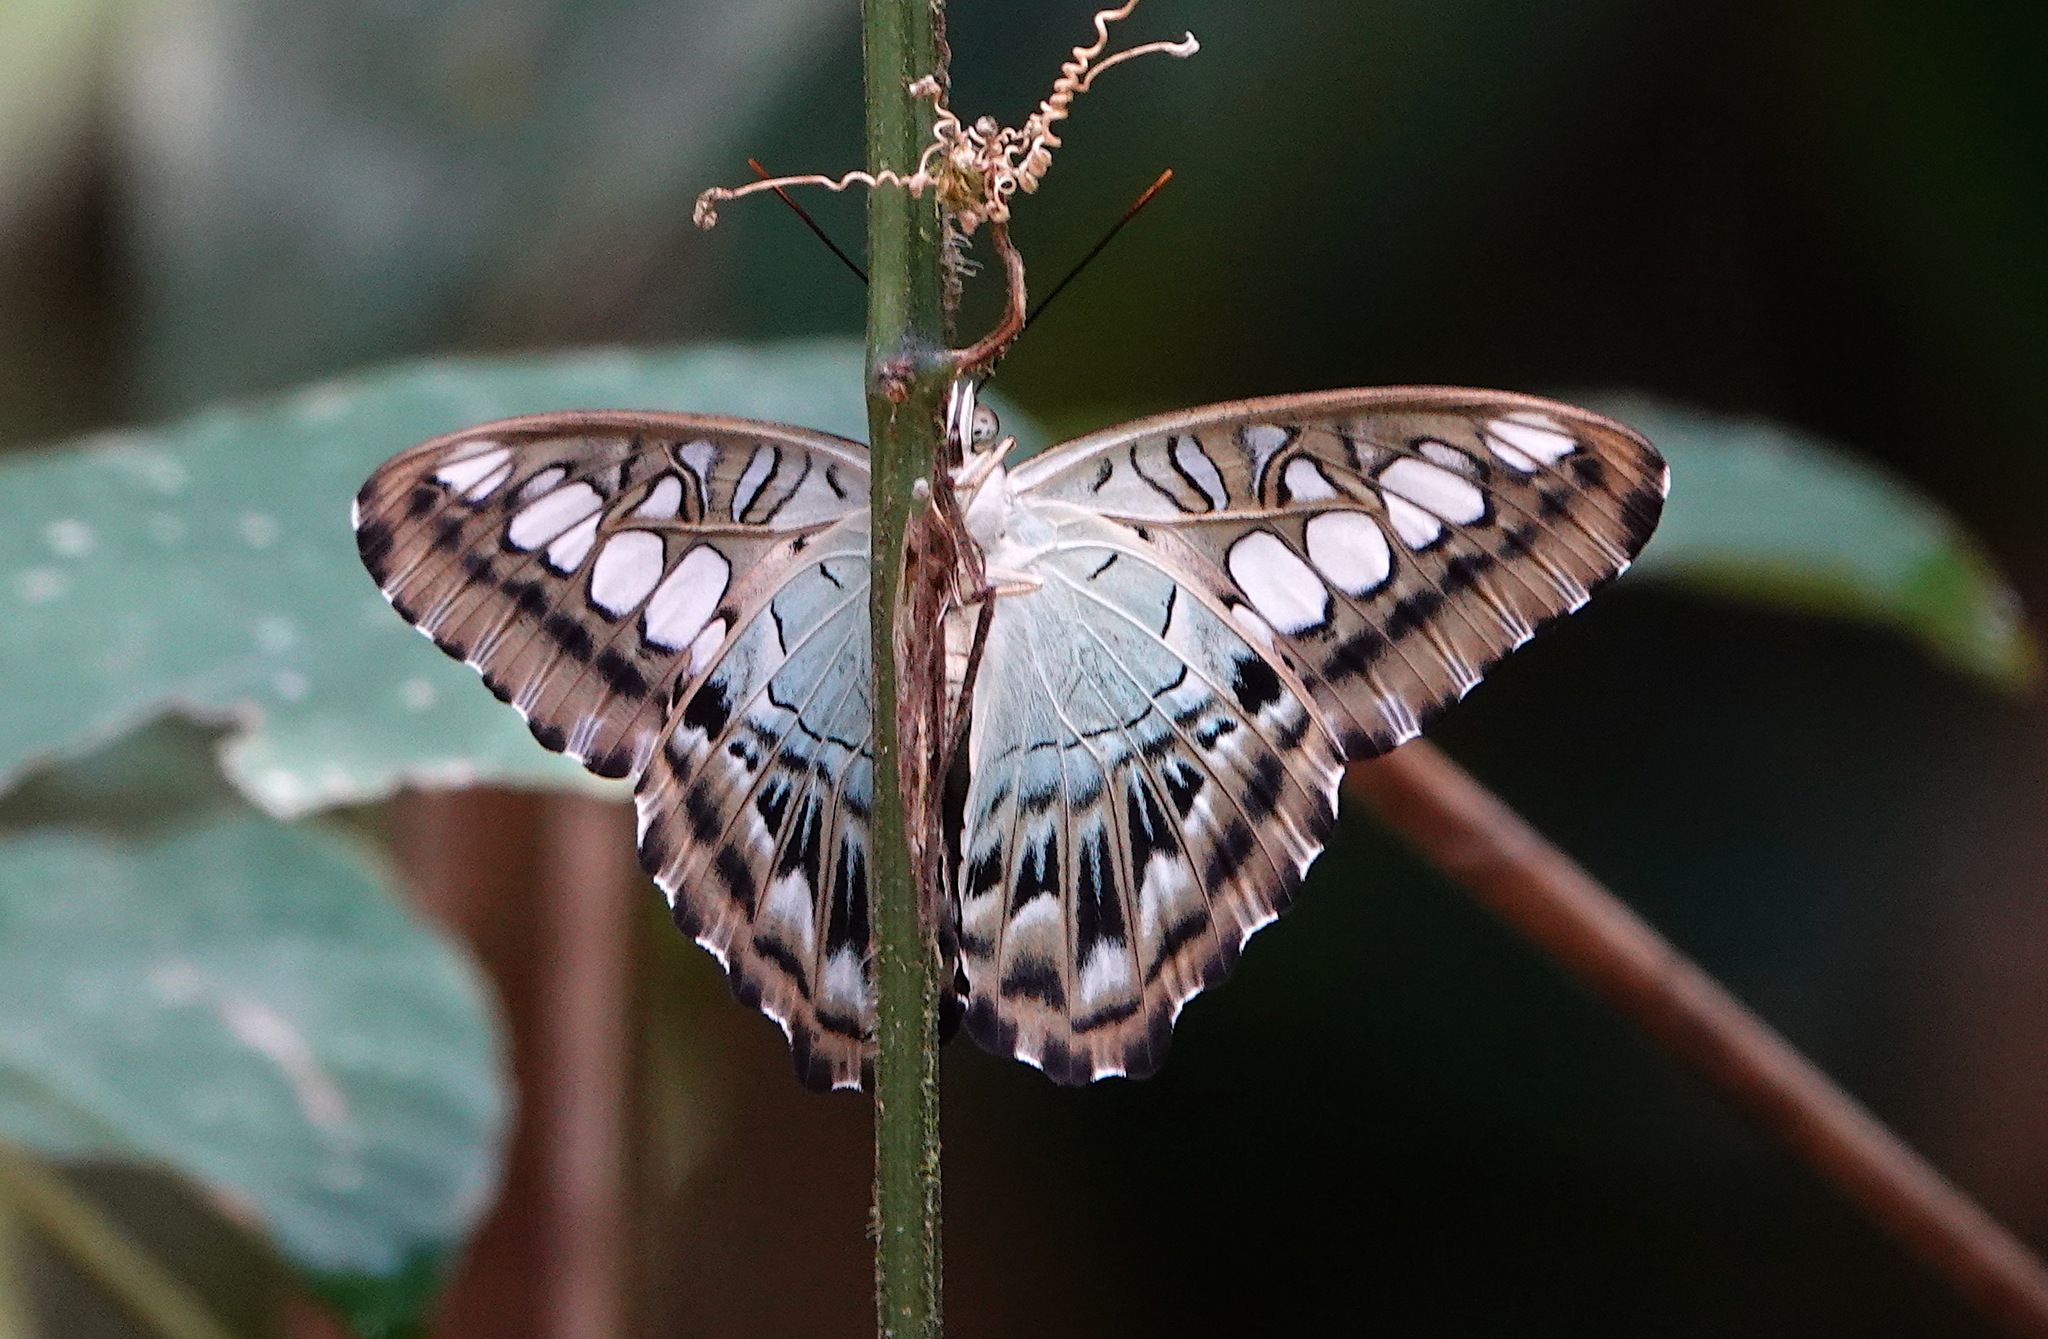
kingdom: Animalia
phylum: Arthropoda
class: Insecta
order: Lepidoptera
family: Nymphalidae
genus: Kallima
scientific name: Kallima sylvia
